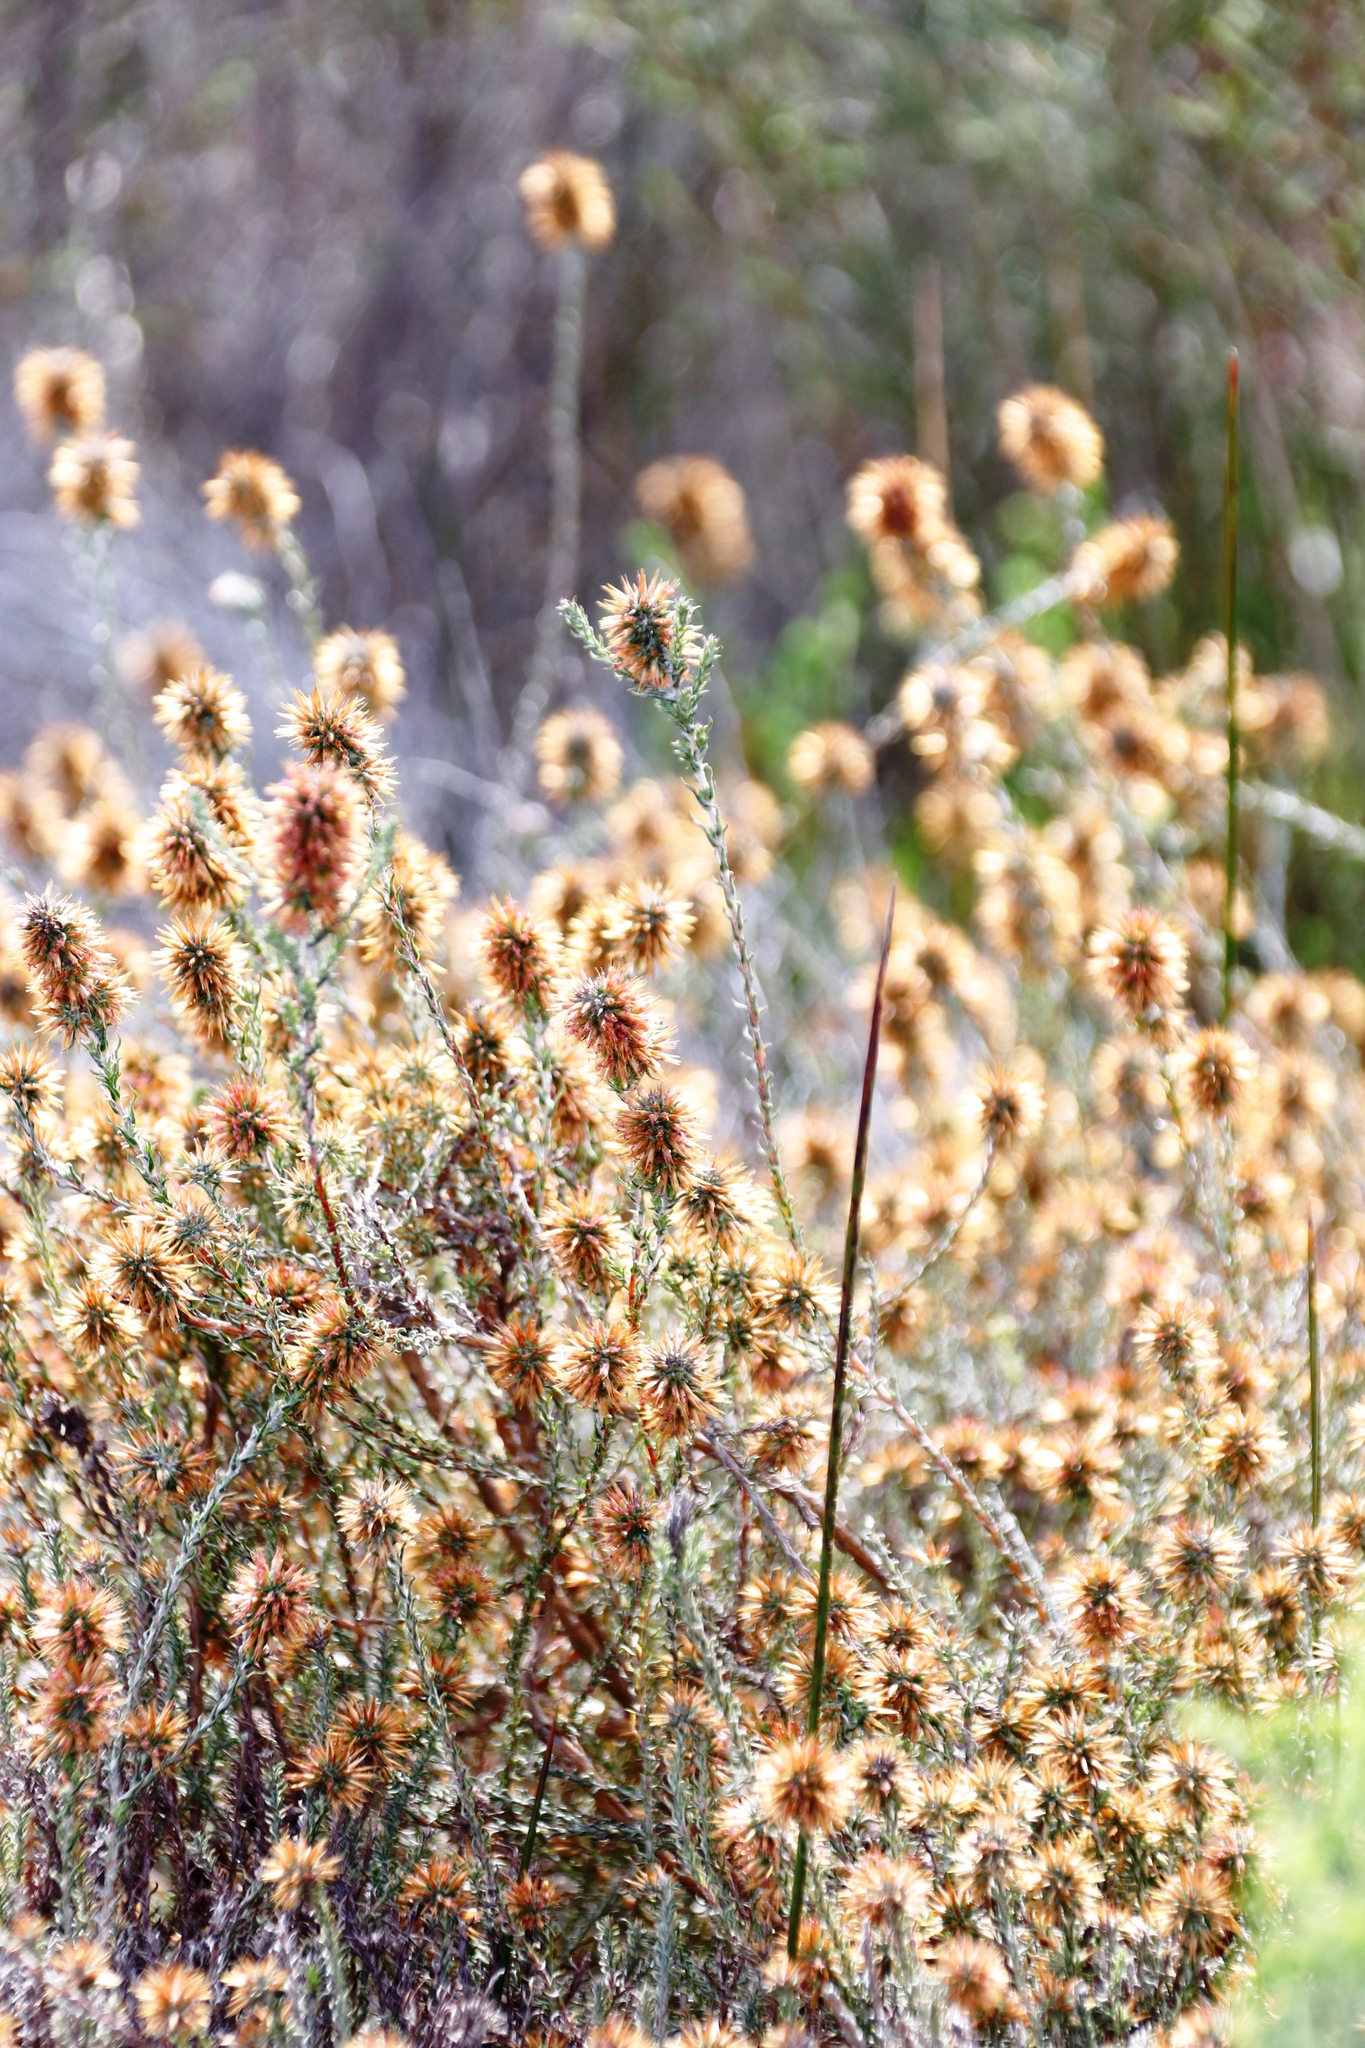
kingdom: Plantae
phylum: Tracheophyta
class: Magnoliopsida
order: Asterales
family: Asteraceae
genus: Seriphium
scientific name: Seriphium incanum
